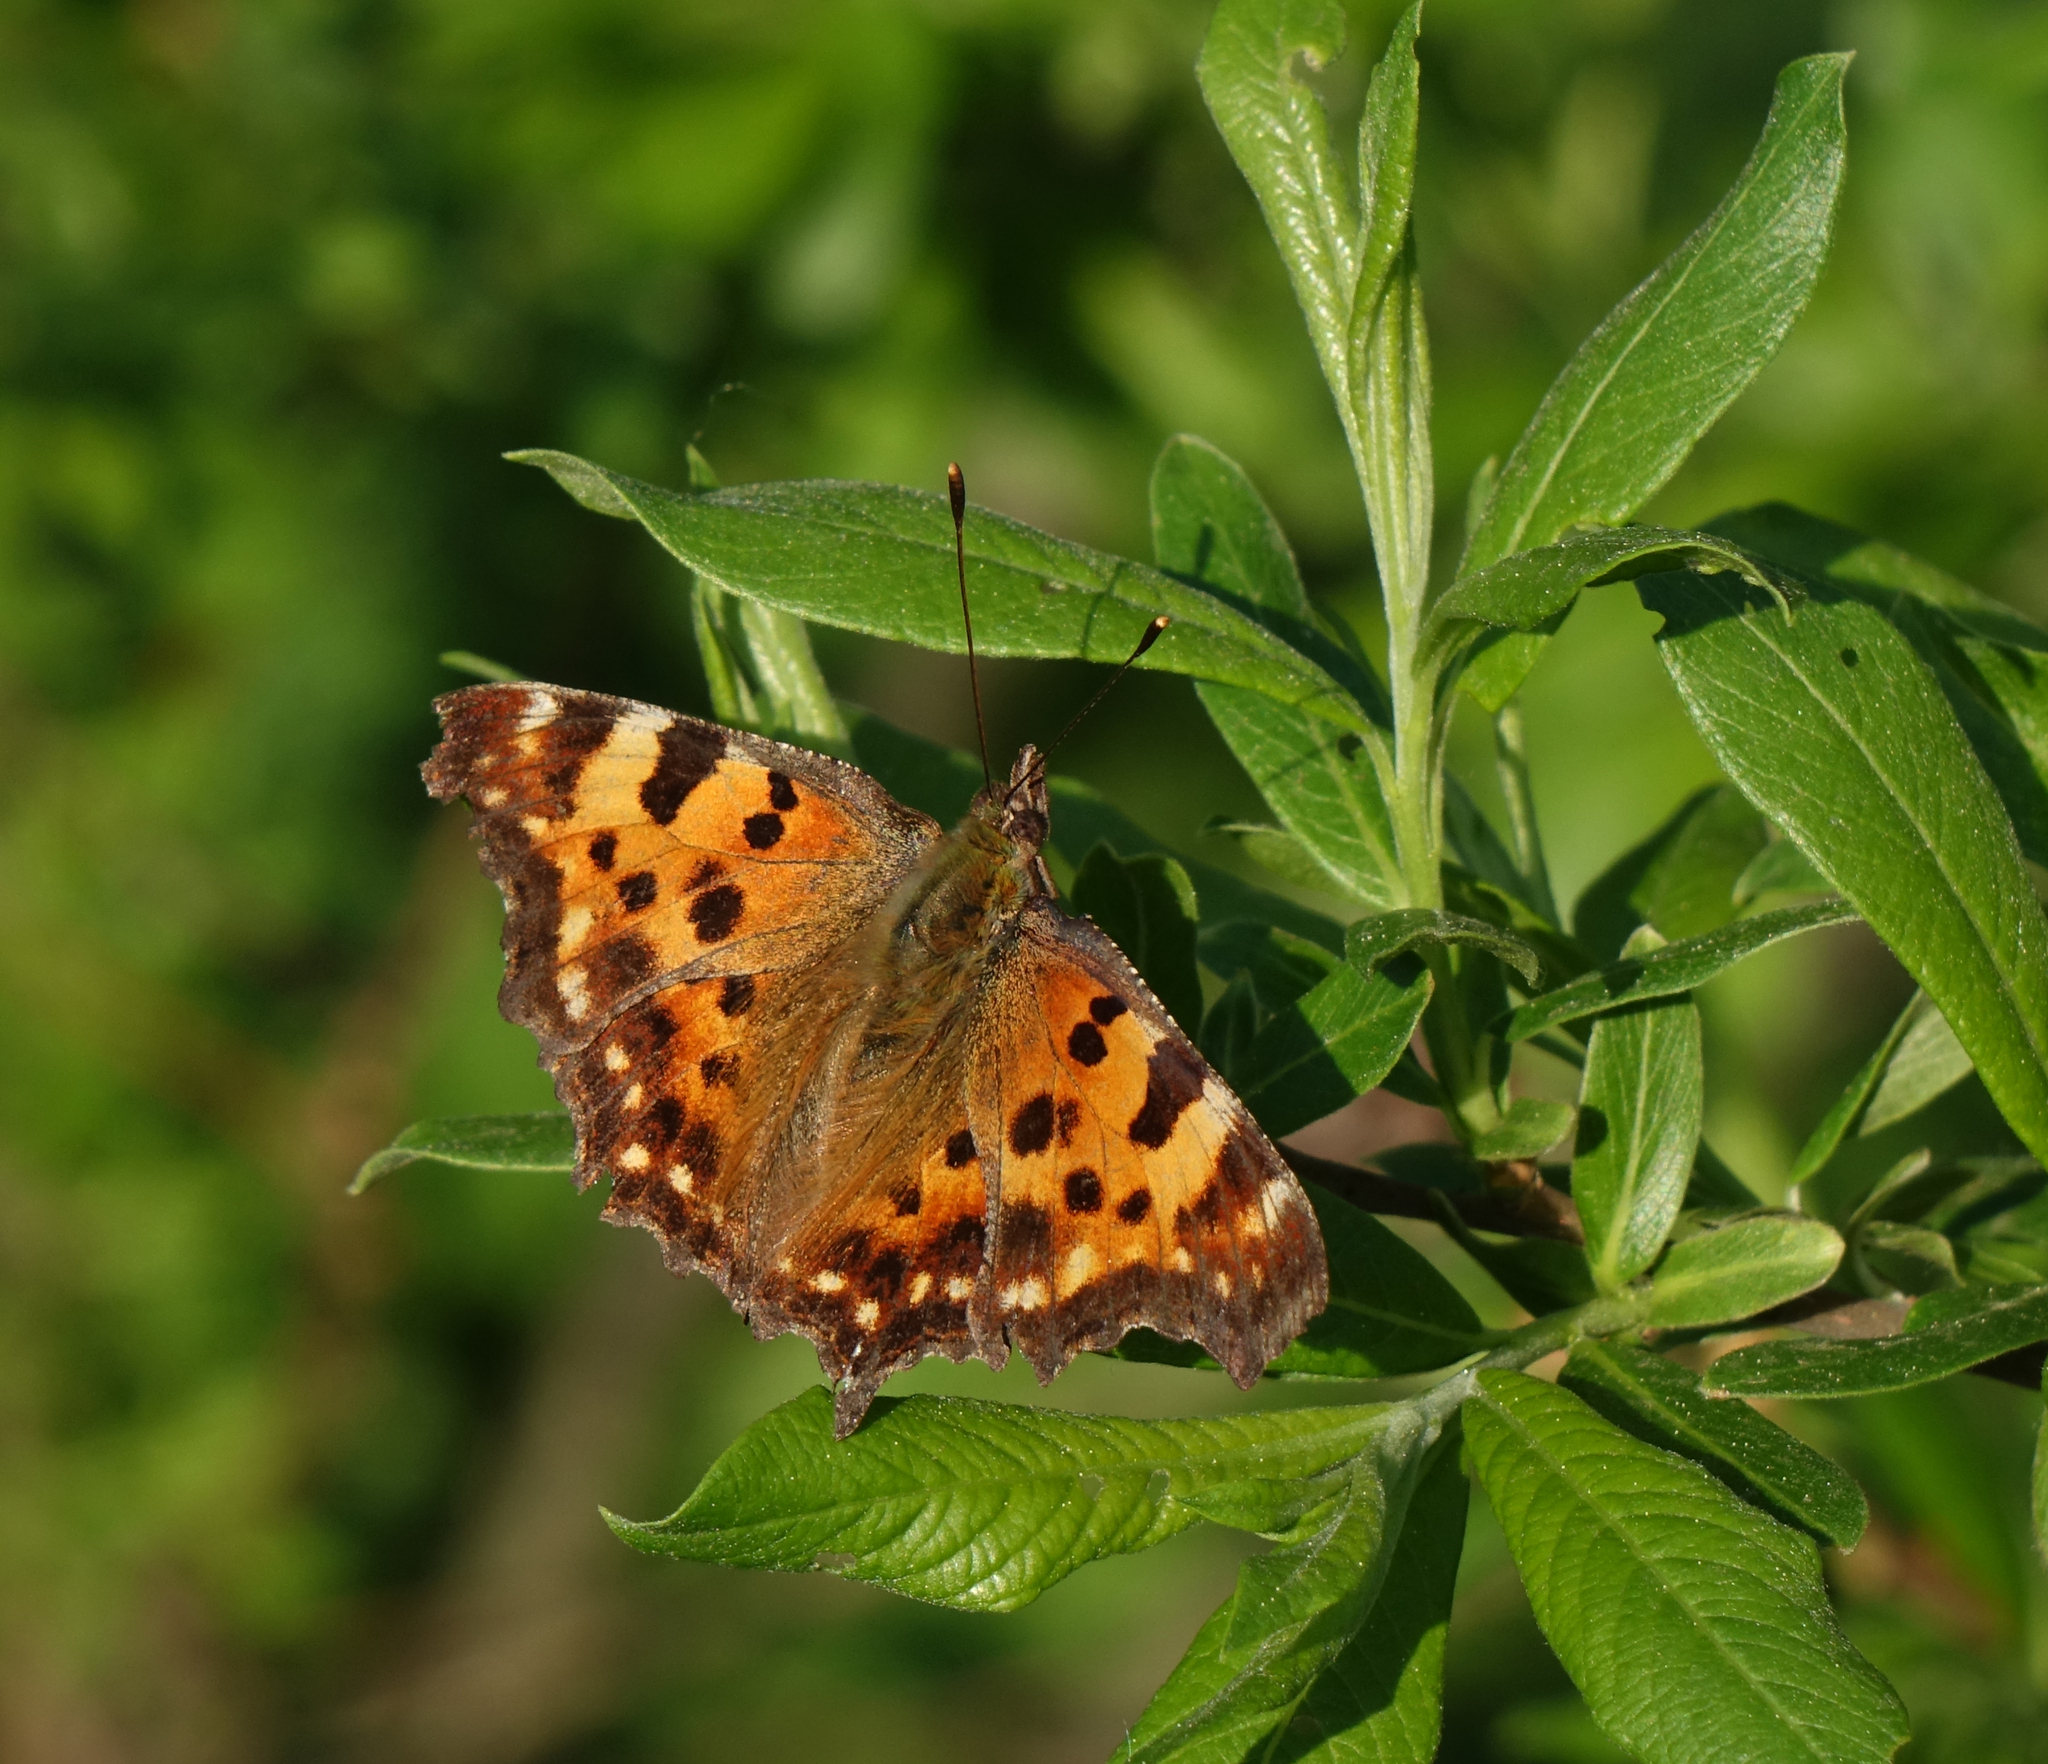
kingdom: Animalia
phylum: Arthropoda
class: Insecta
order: Lepidoptera
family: Nymphalidae
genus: Polygonia
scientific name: Polygonia c-album
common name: Comma
